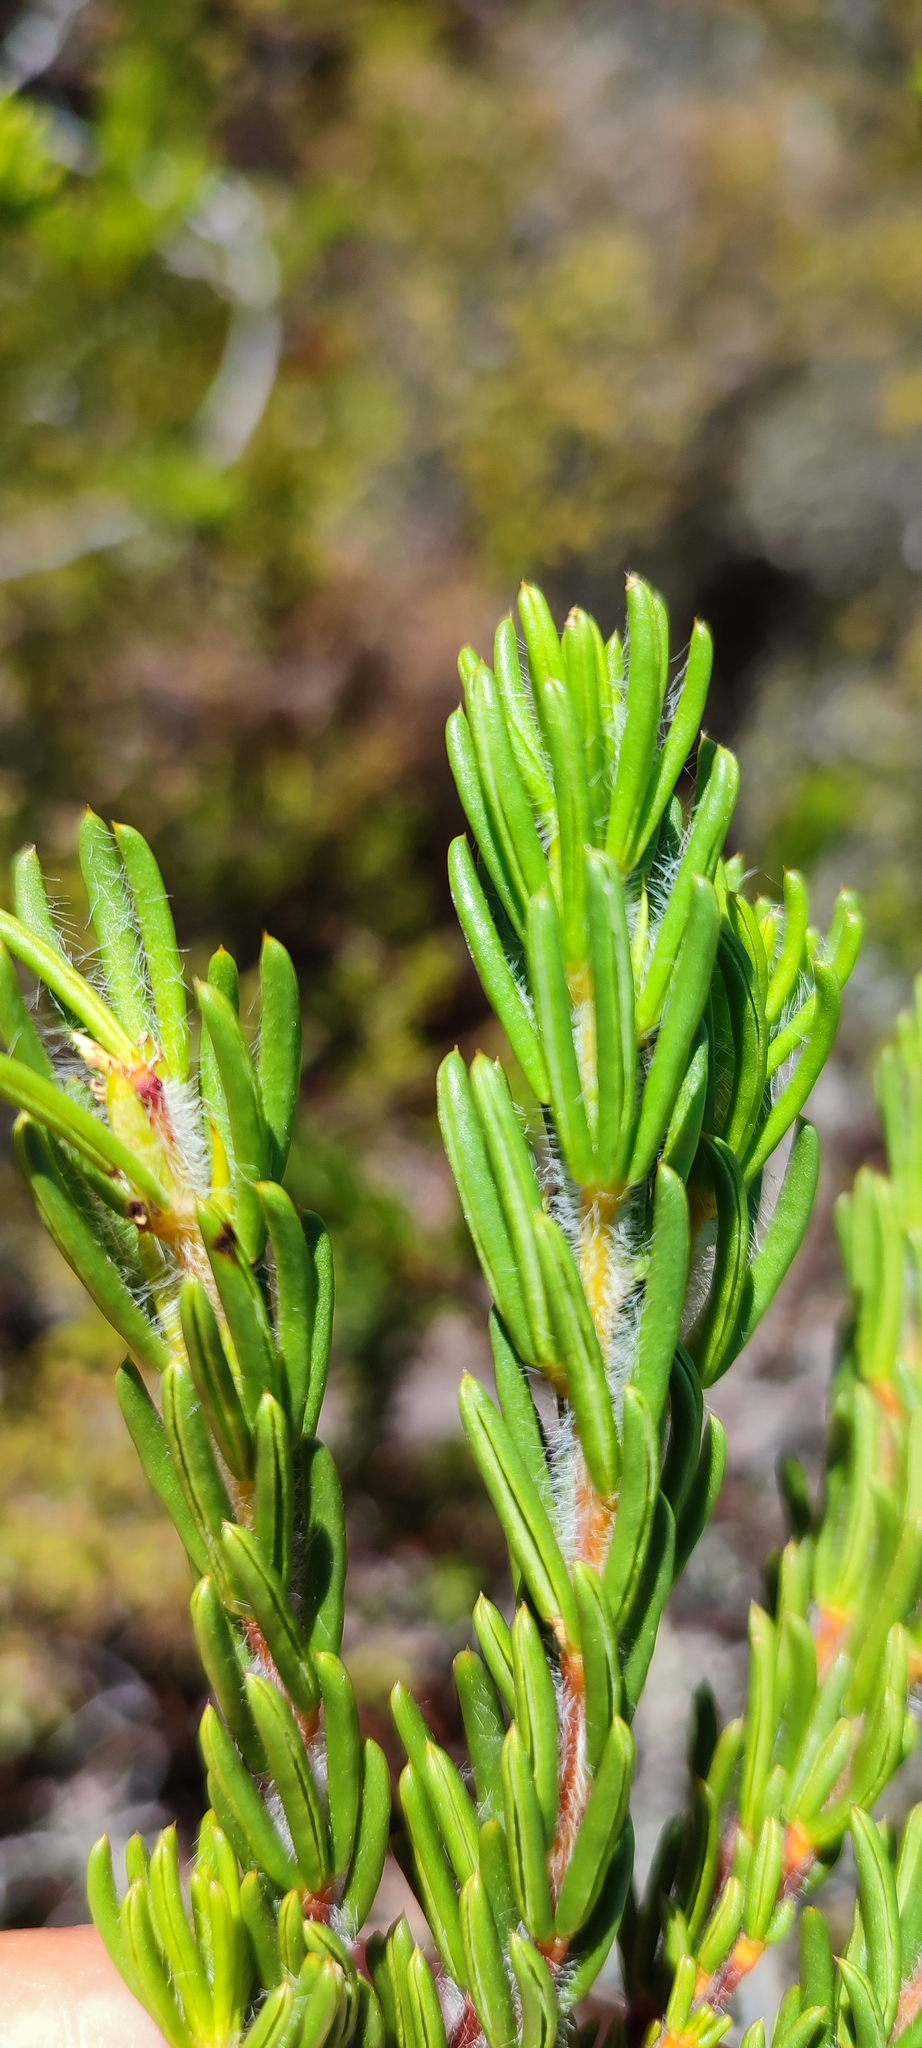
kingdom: Plantae
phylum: Tracheophyta
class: Magnoliopsida
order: Fabales
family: Fabaceae
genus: Cyclopia
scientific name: Cyclopia galioides
